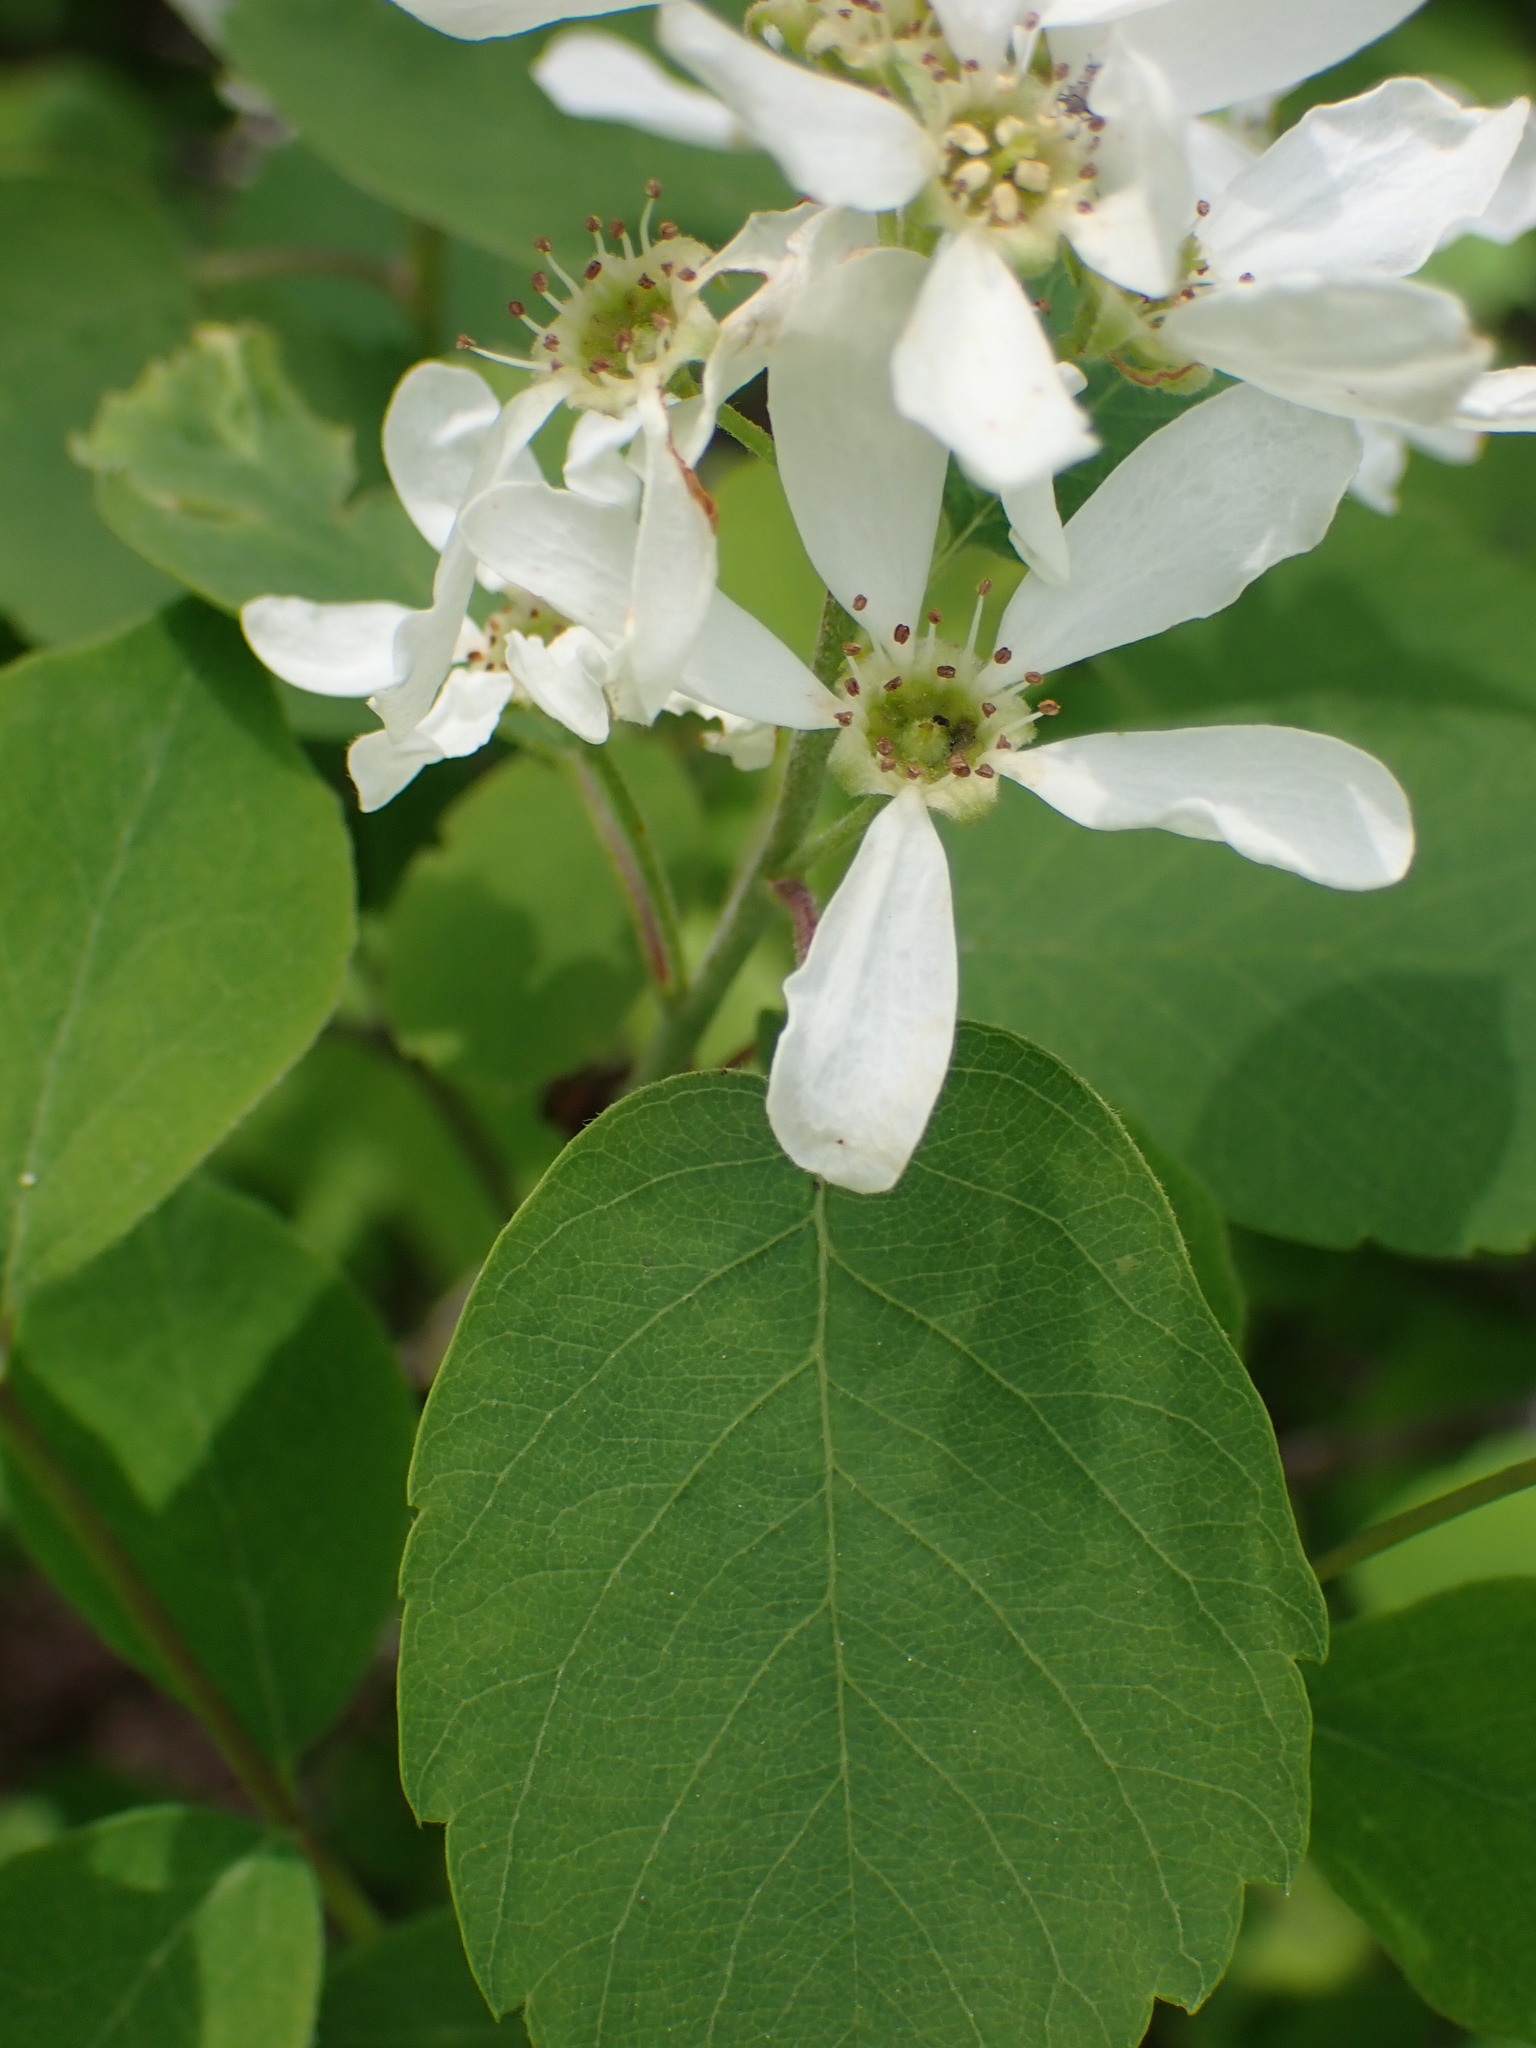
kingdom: Plantae
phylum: Tracheophyta
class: Magnoliopsida
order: Rosales
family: Rosaceae
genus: Amelanchier
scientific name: Amelanchier alnifolia
